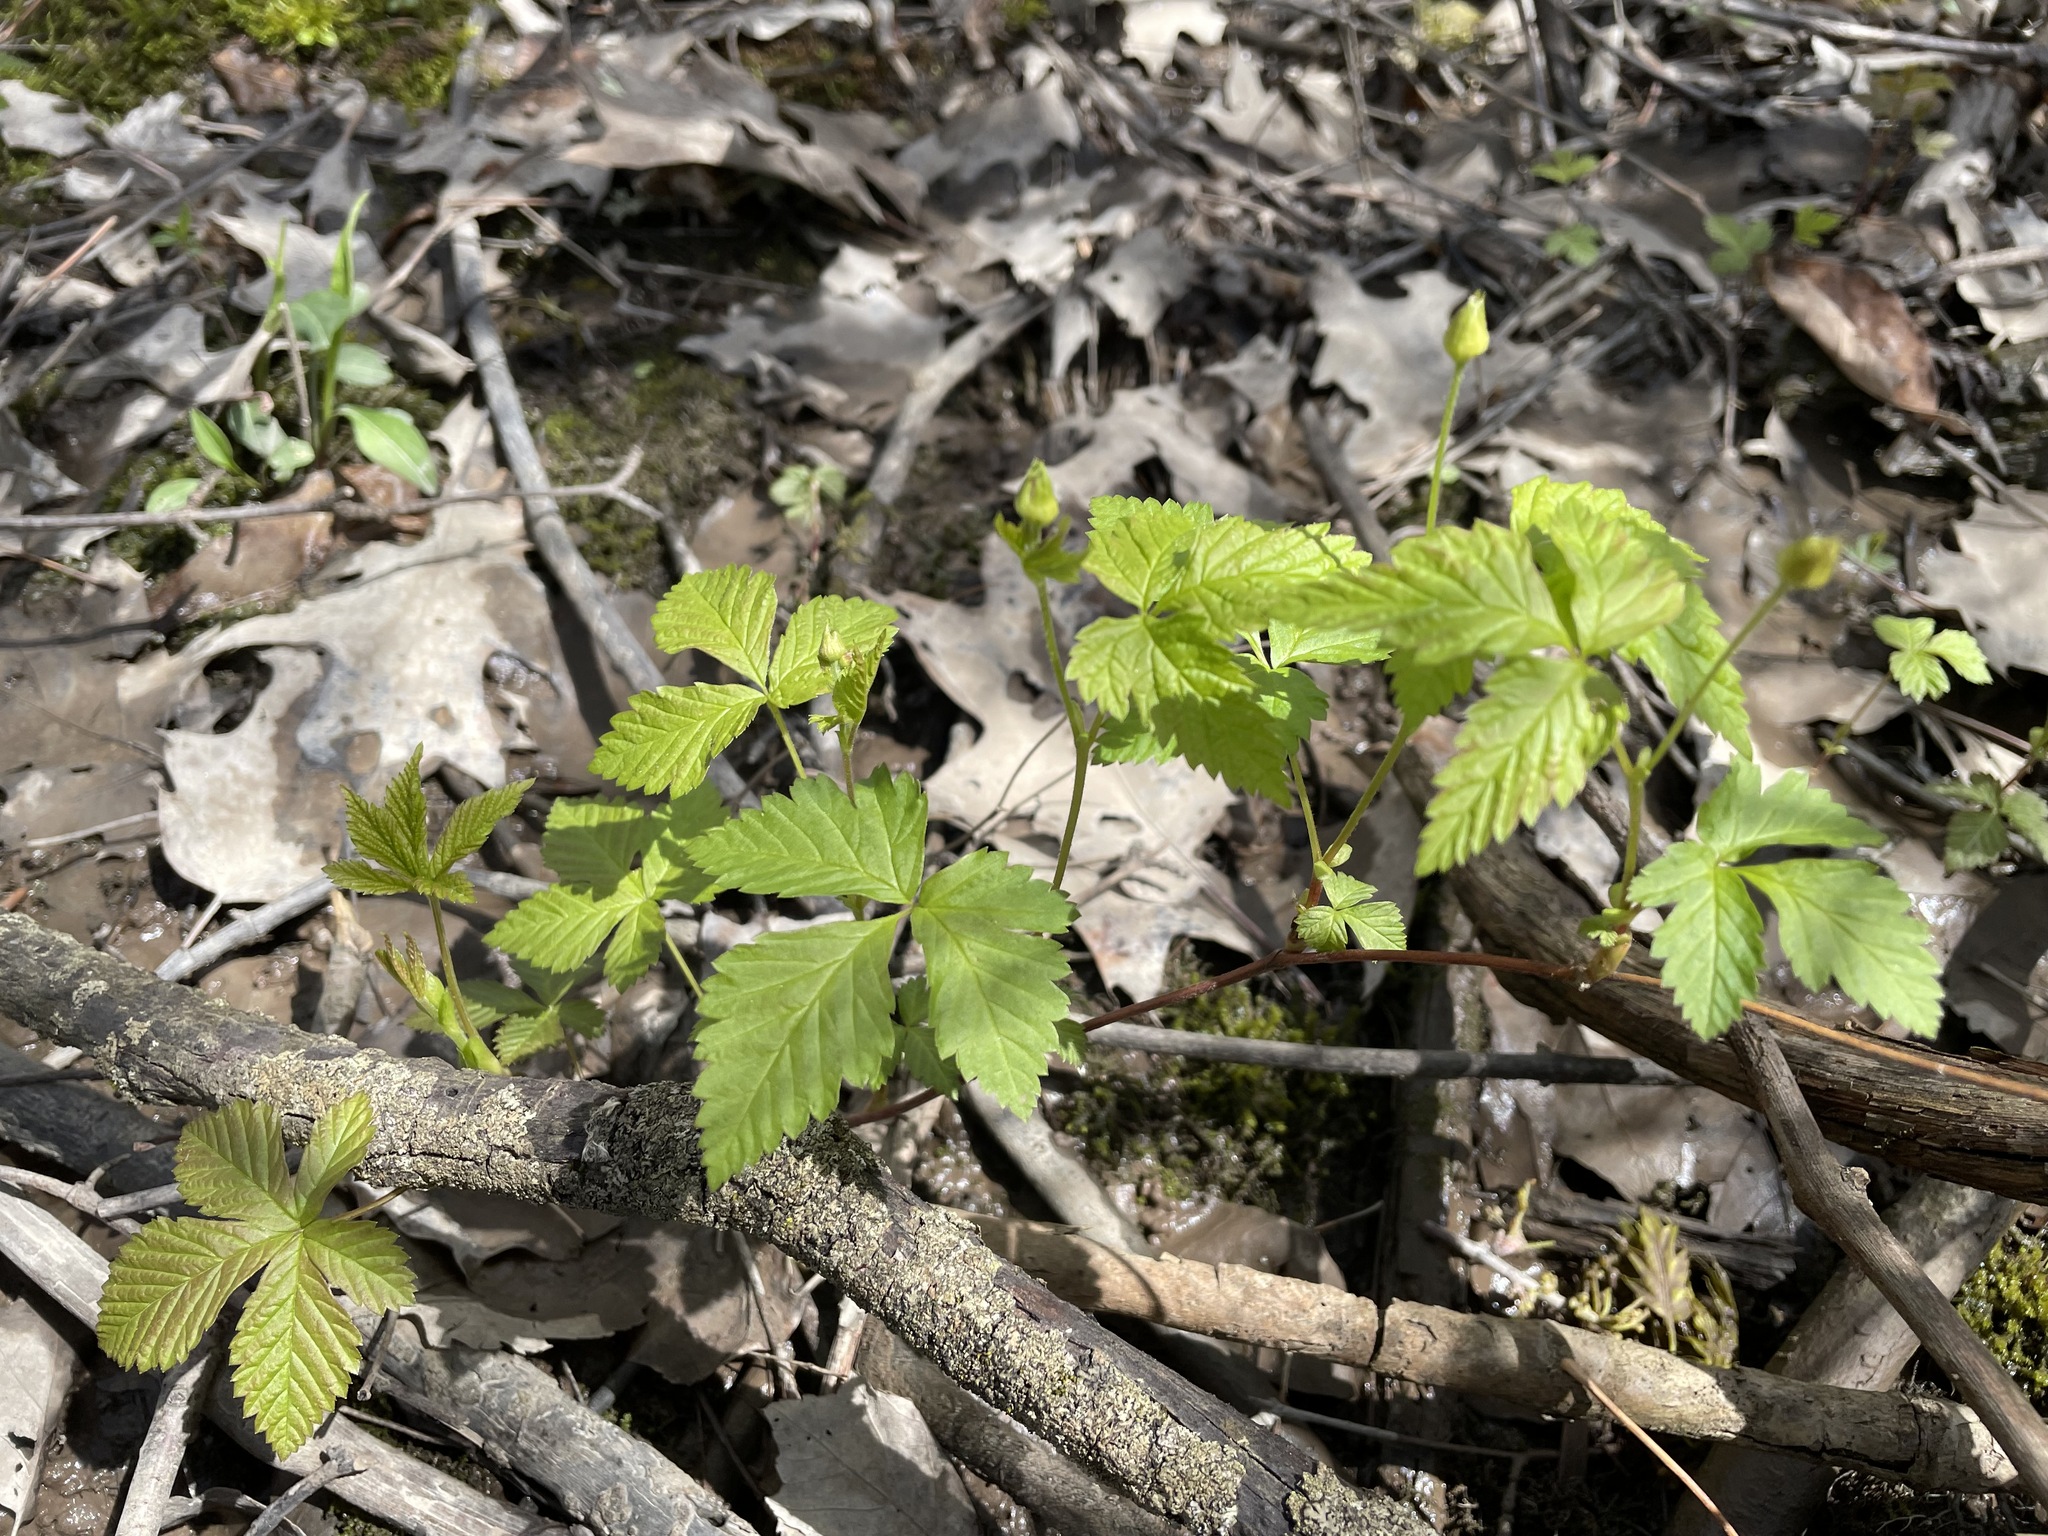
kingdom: Plantae
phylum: Tracheophyta
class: Magnoliopsida
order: Rosales
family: Rosaceae
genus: Rubus
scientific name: Rubus pubescens
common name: Dwarf raspberry
